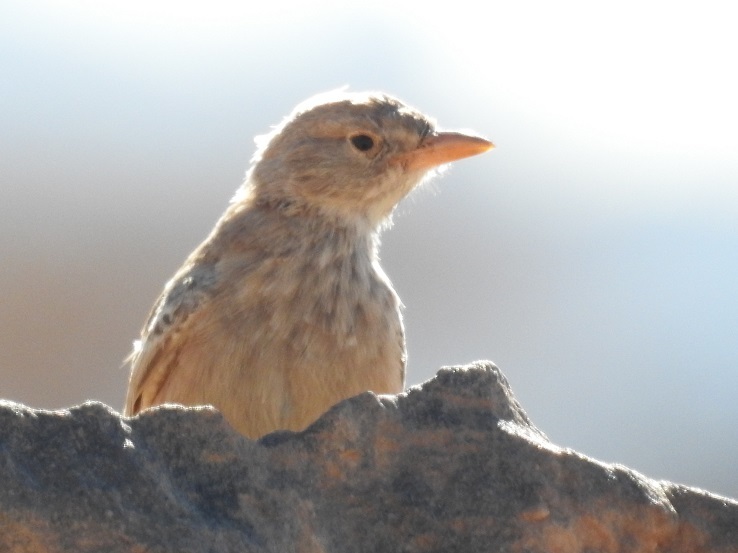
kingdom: Animalia
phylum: Chordata
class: Aves
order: Passeriformes
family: Alaudidae
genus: Ammomanes
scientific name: Ammomanes deserti
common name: Desert lark
